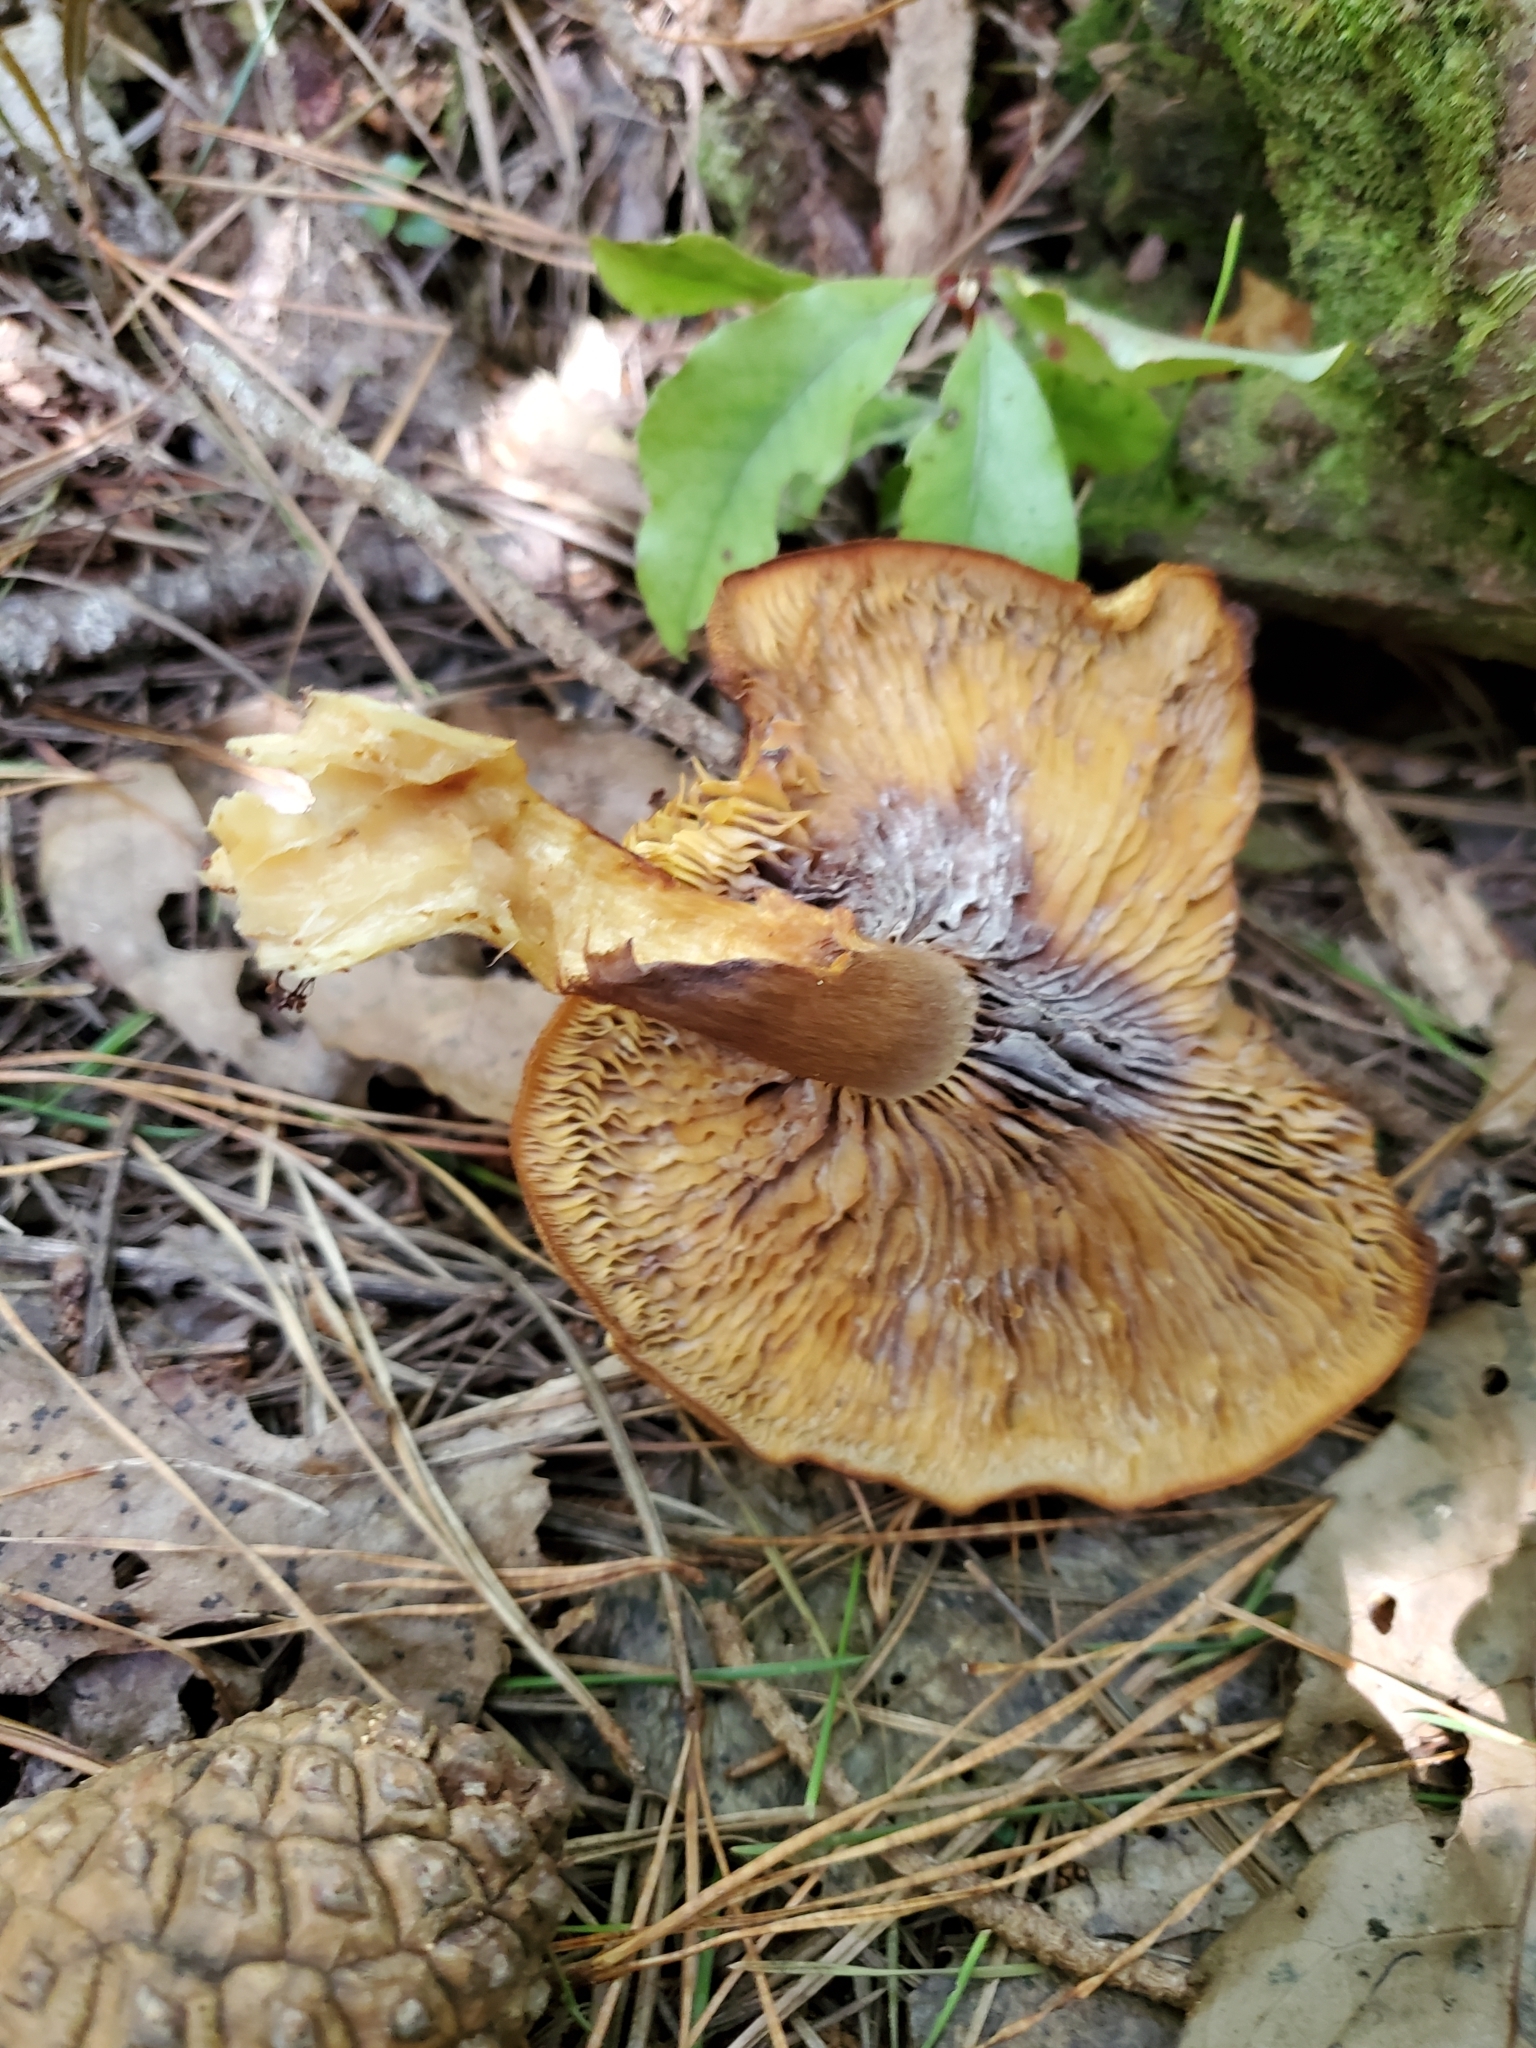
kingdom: Fungi
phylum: Basidiomycota
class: Agaricomycetes
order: Agaricales
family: Tricholomataceae
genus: Tricholomopsis
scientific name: Tricholomopsis ornaticeps
